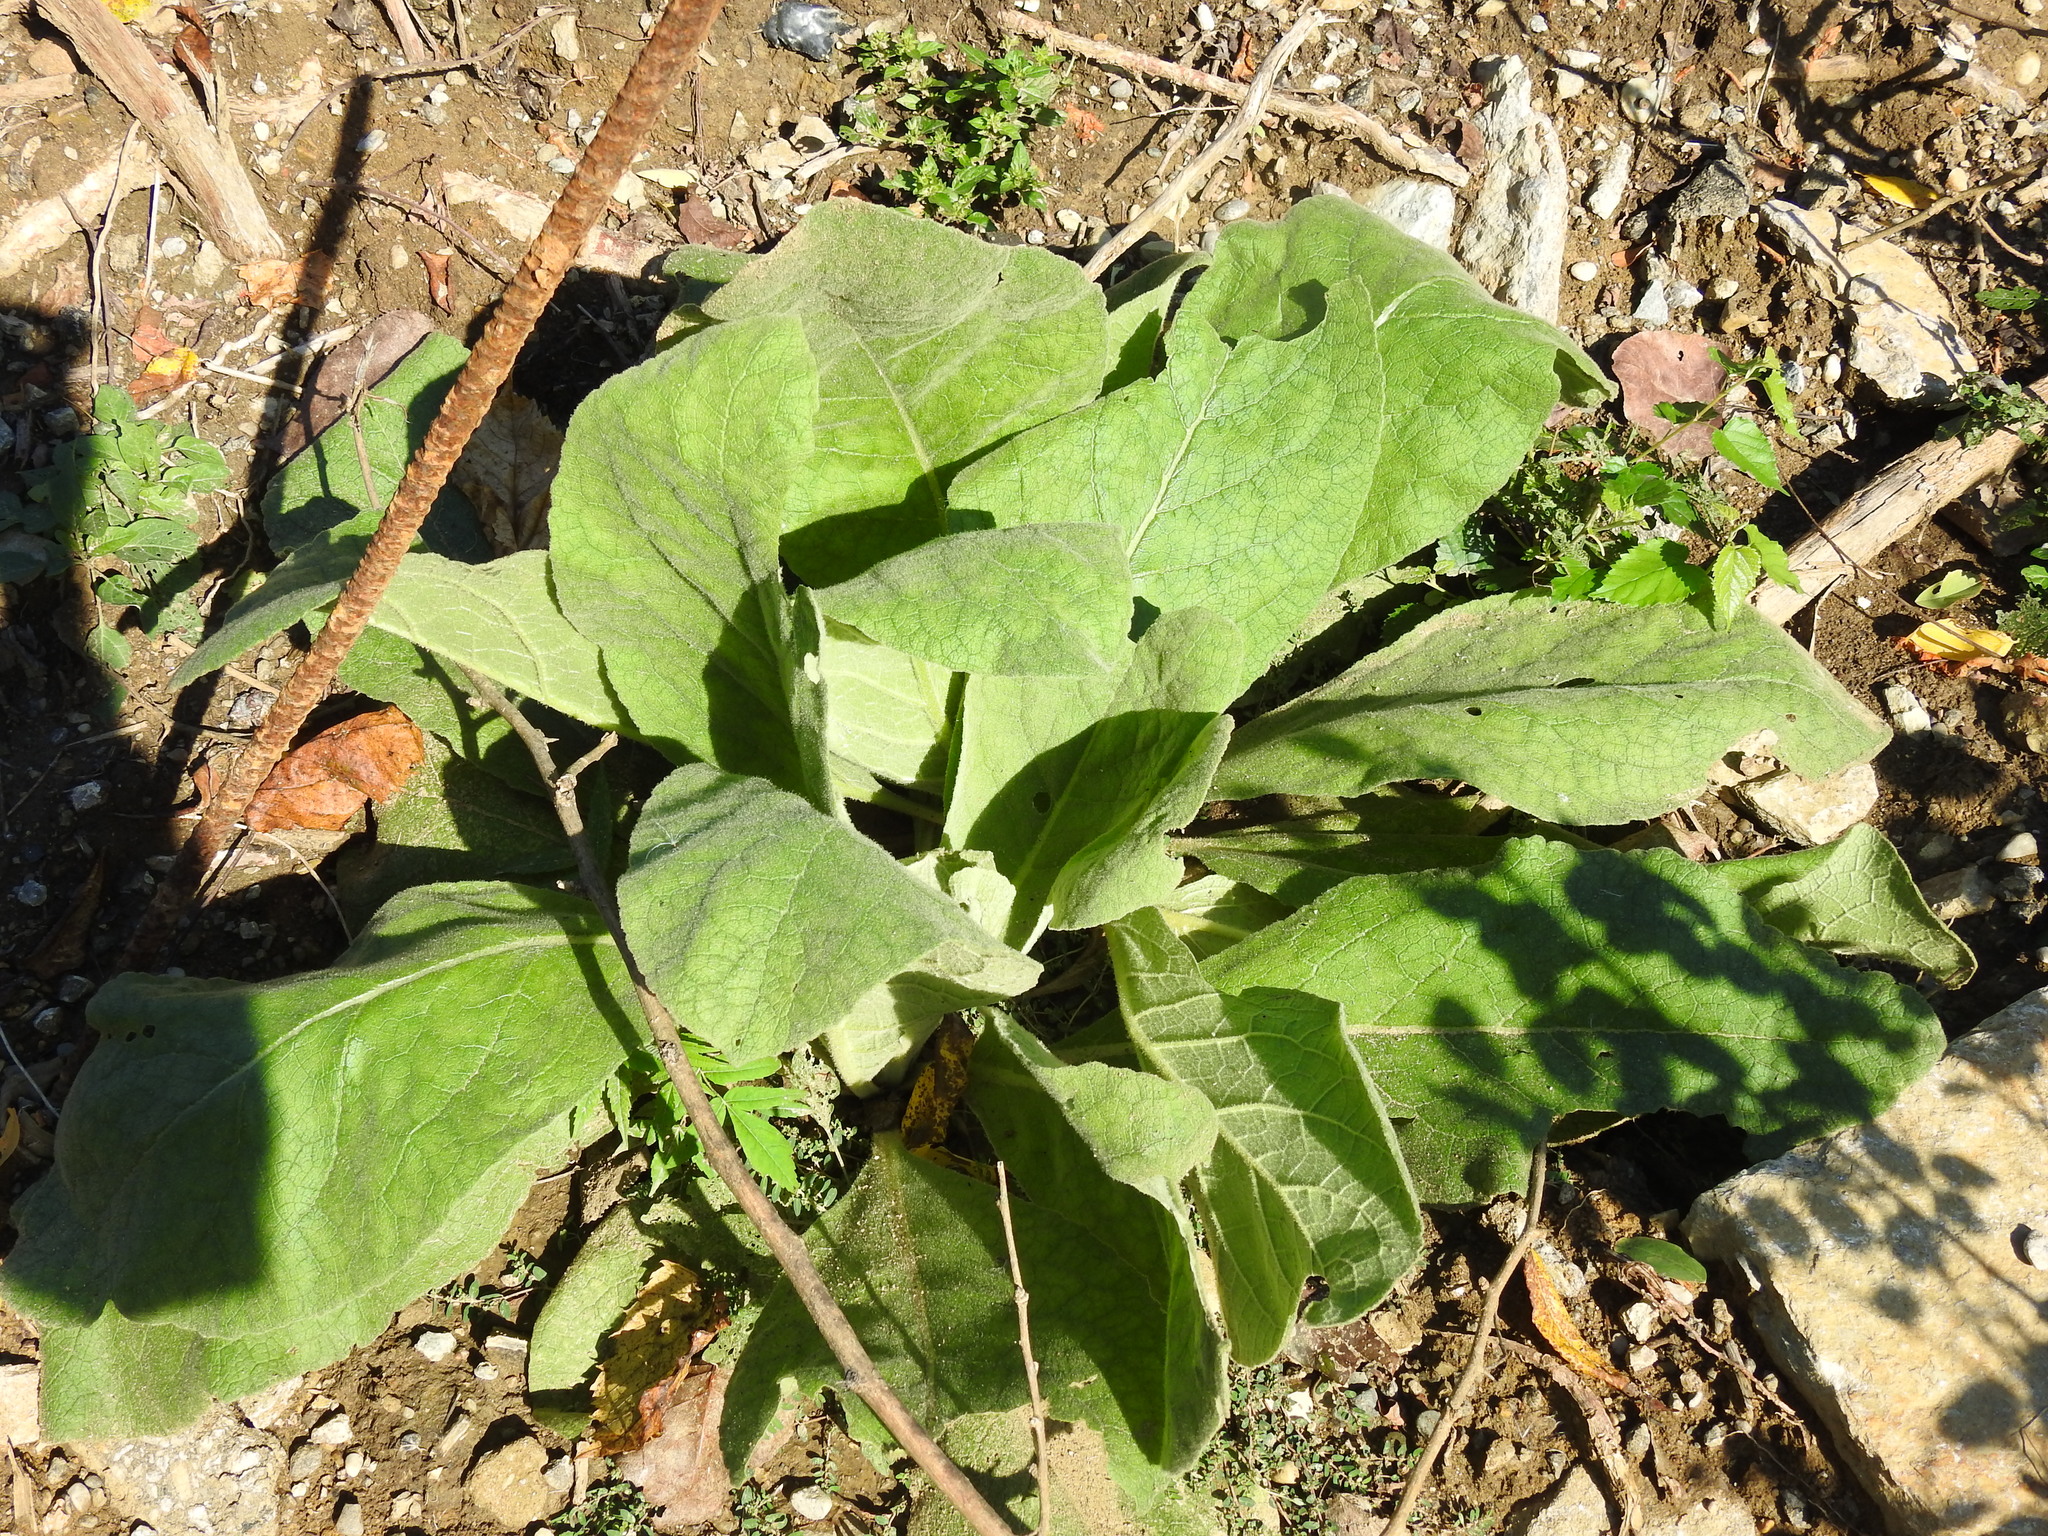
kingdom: Plantae
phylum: Tracheophyta
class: Magnoliopsida
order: Lamiales
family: Scrophulariaceae
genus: Verbascum
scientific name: Verbascum thapsus
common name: Common mullein
